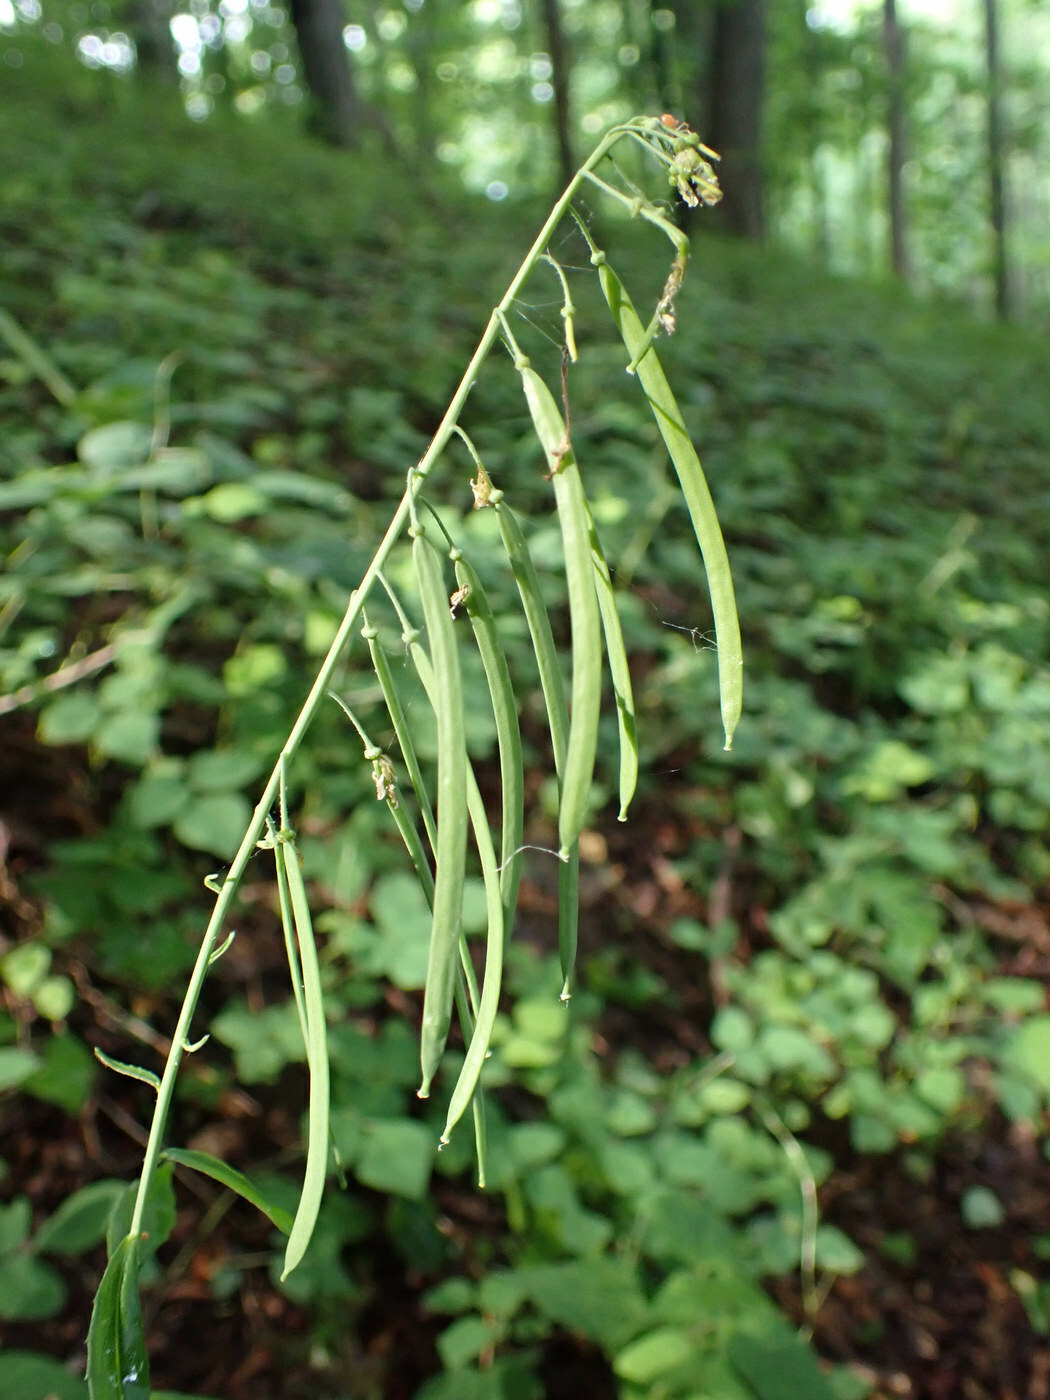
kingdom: Plantae
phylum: Tracheophyta
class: Magnoliopsida
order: Brassicales
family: Brassicaceae
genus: Borodinia
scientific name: Borodinia canadensis
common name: Sicklepod
